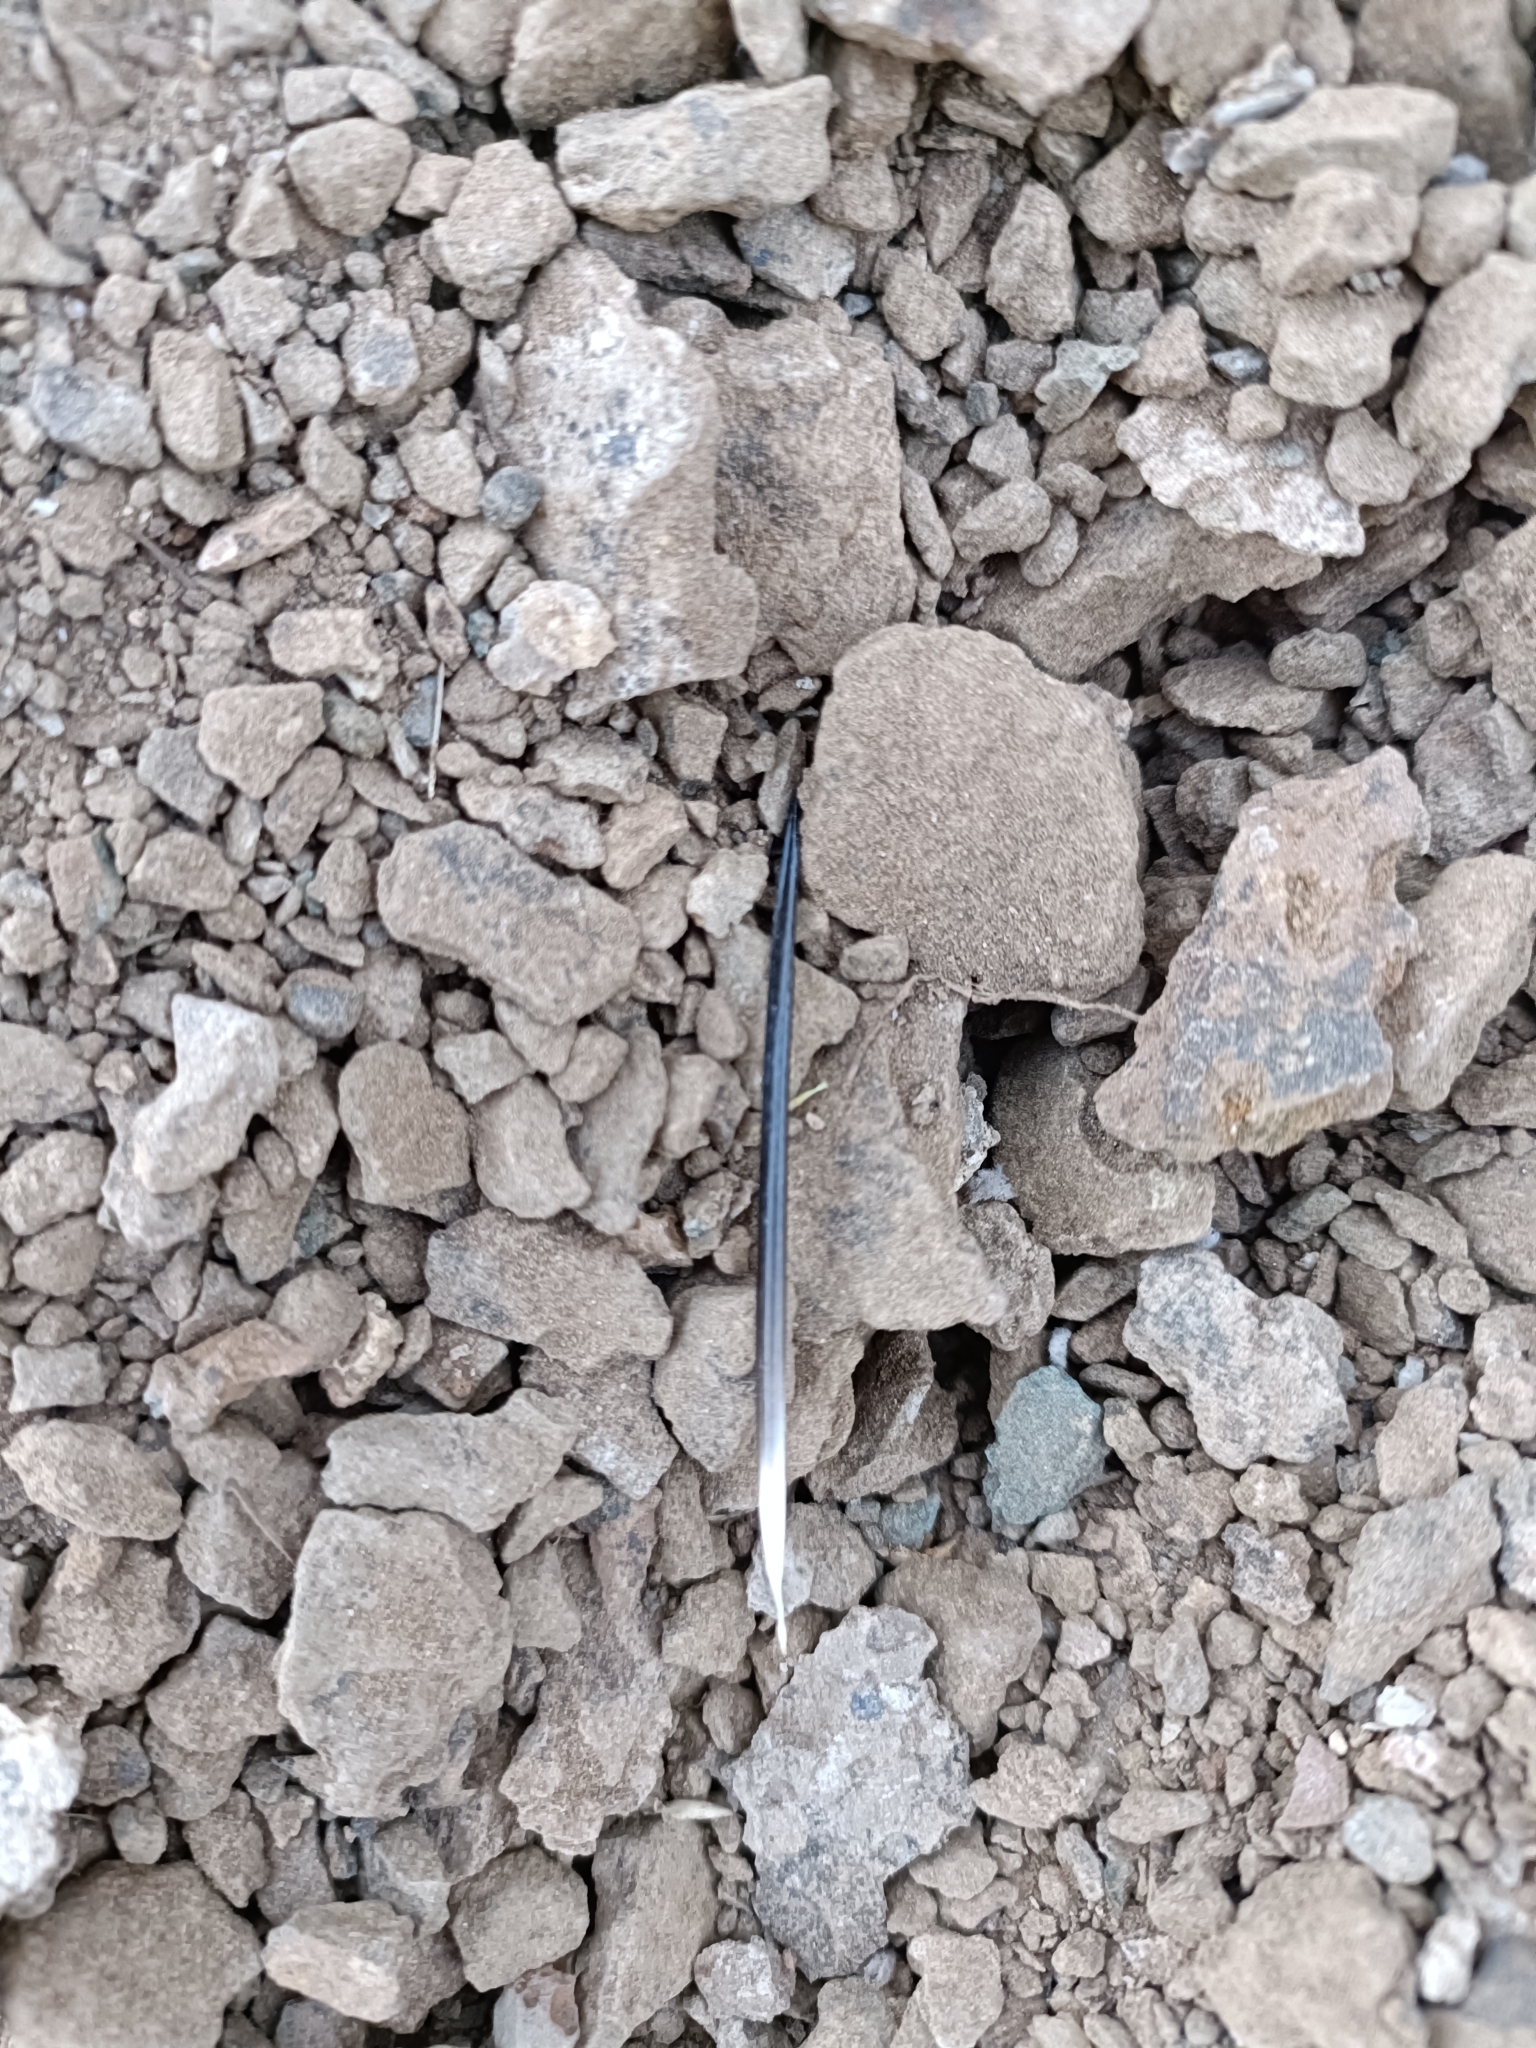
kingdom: Animalia
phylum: Chordata
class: Mammalia
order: Rodentia
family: Hystricidae
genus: Hystrix
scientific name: Hystrix indica
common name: Indian crested porcupine
